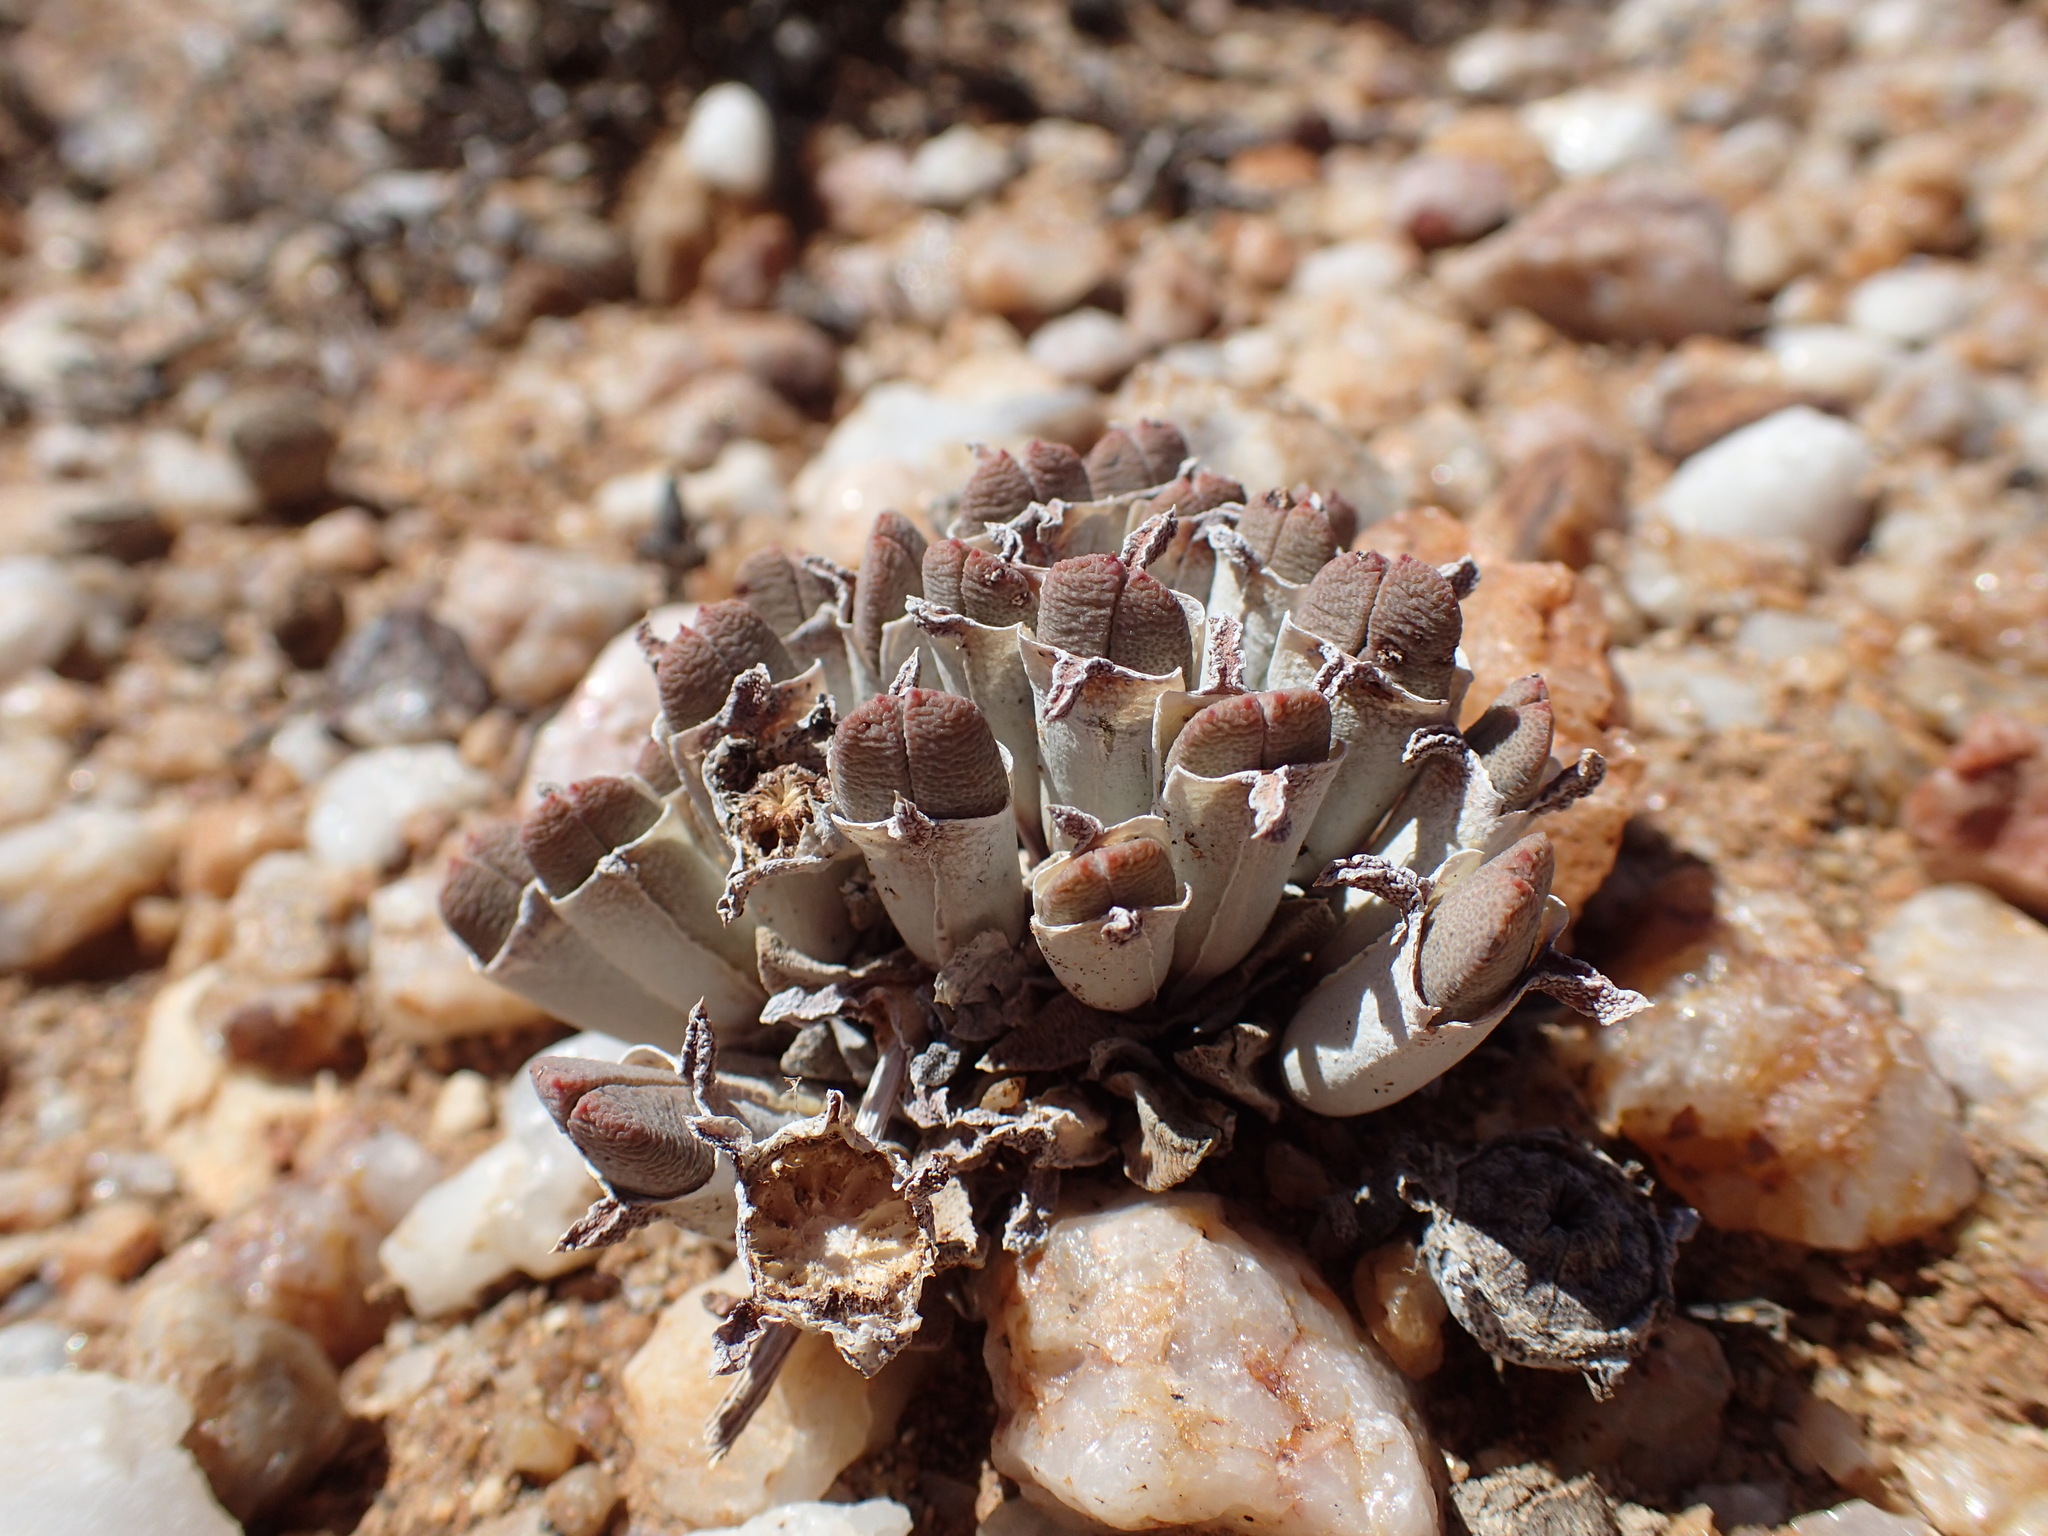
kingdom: Plantae
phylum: Tracheophyta
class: Magnoliopsida
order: Caryophyllales
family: Aizoaceae
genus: Cheiridopsis
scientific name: Cheiridopsis namaquensis
